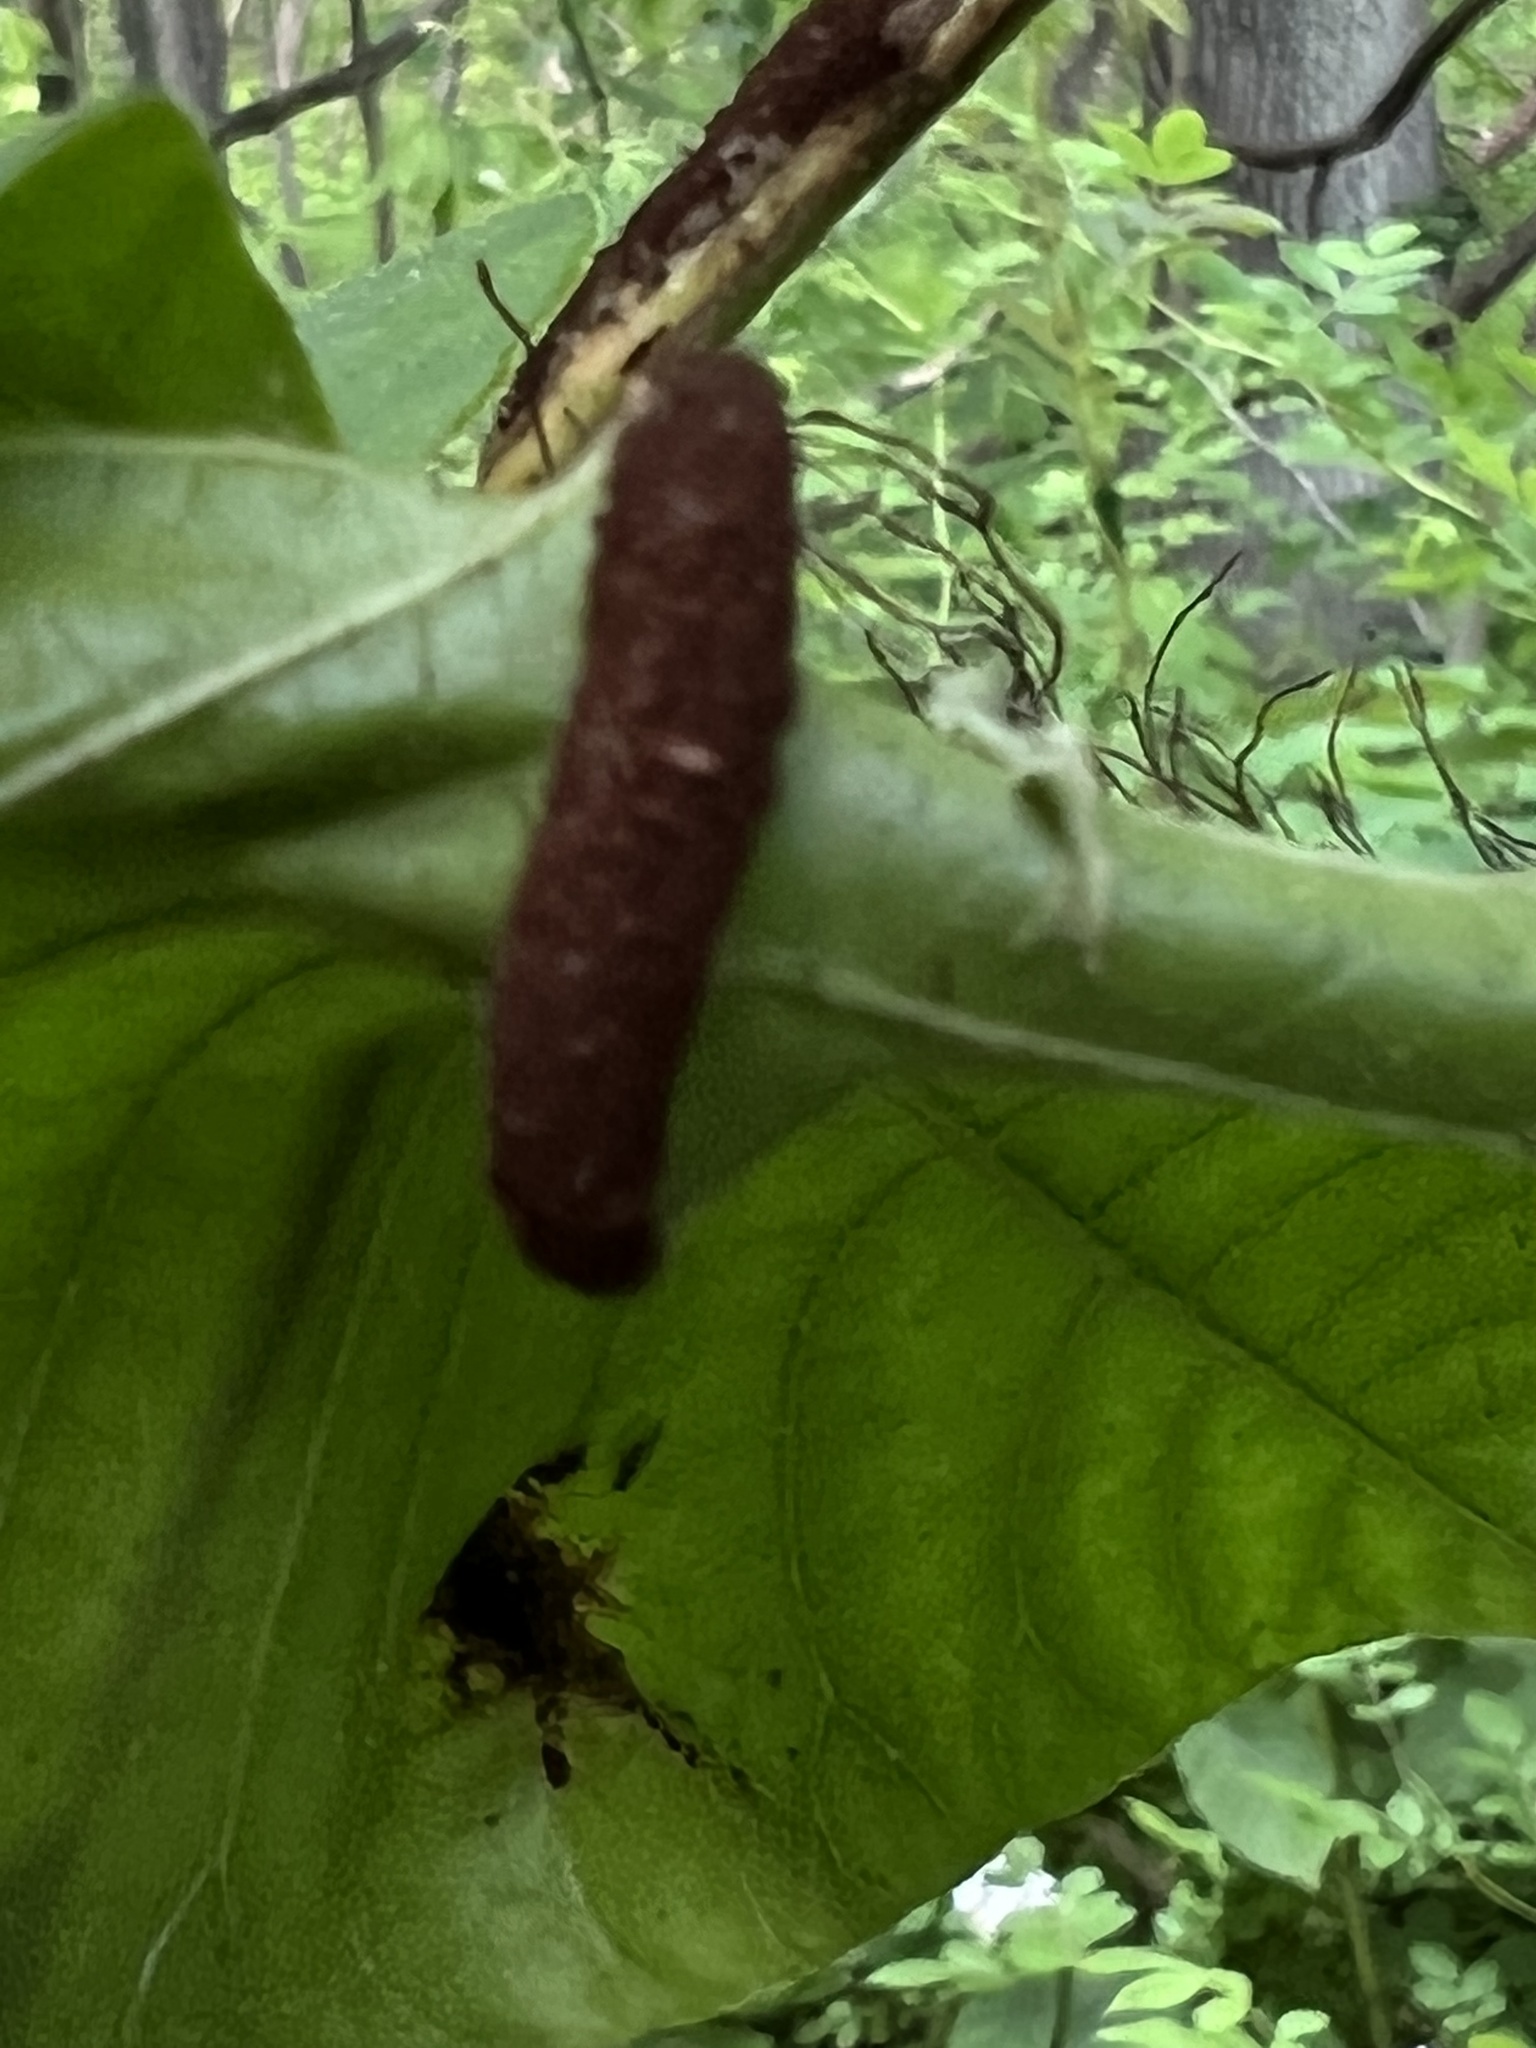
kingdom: Fungi
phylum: Basidiomycota
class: Pucciniomycetes
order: Pucciniales
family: Pileolariaceae
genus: Pileolaria
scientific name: Pileolaria brevipes
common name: Poison ivy rust
